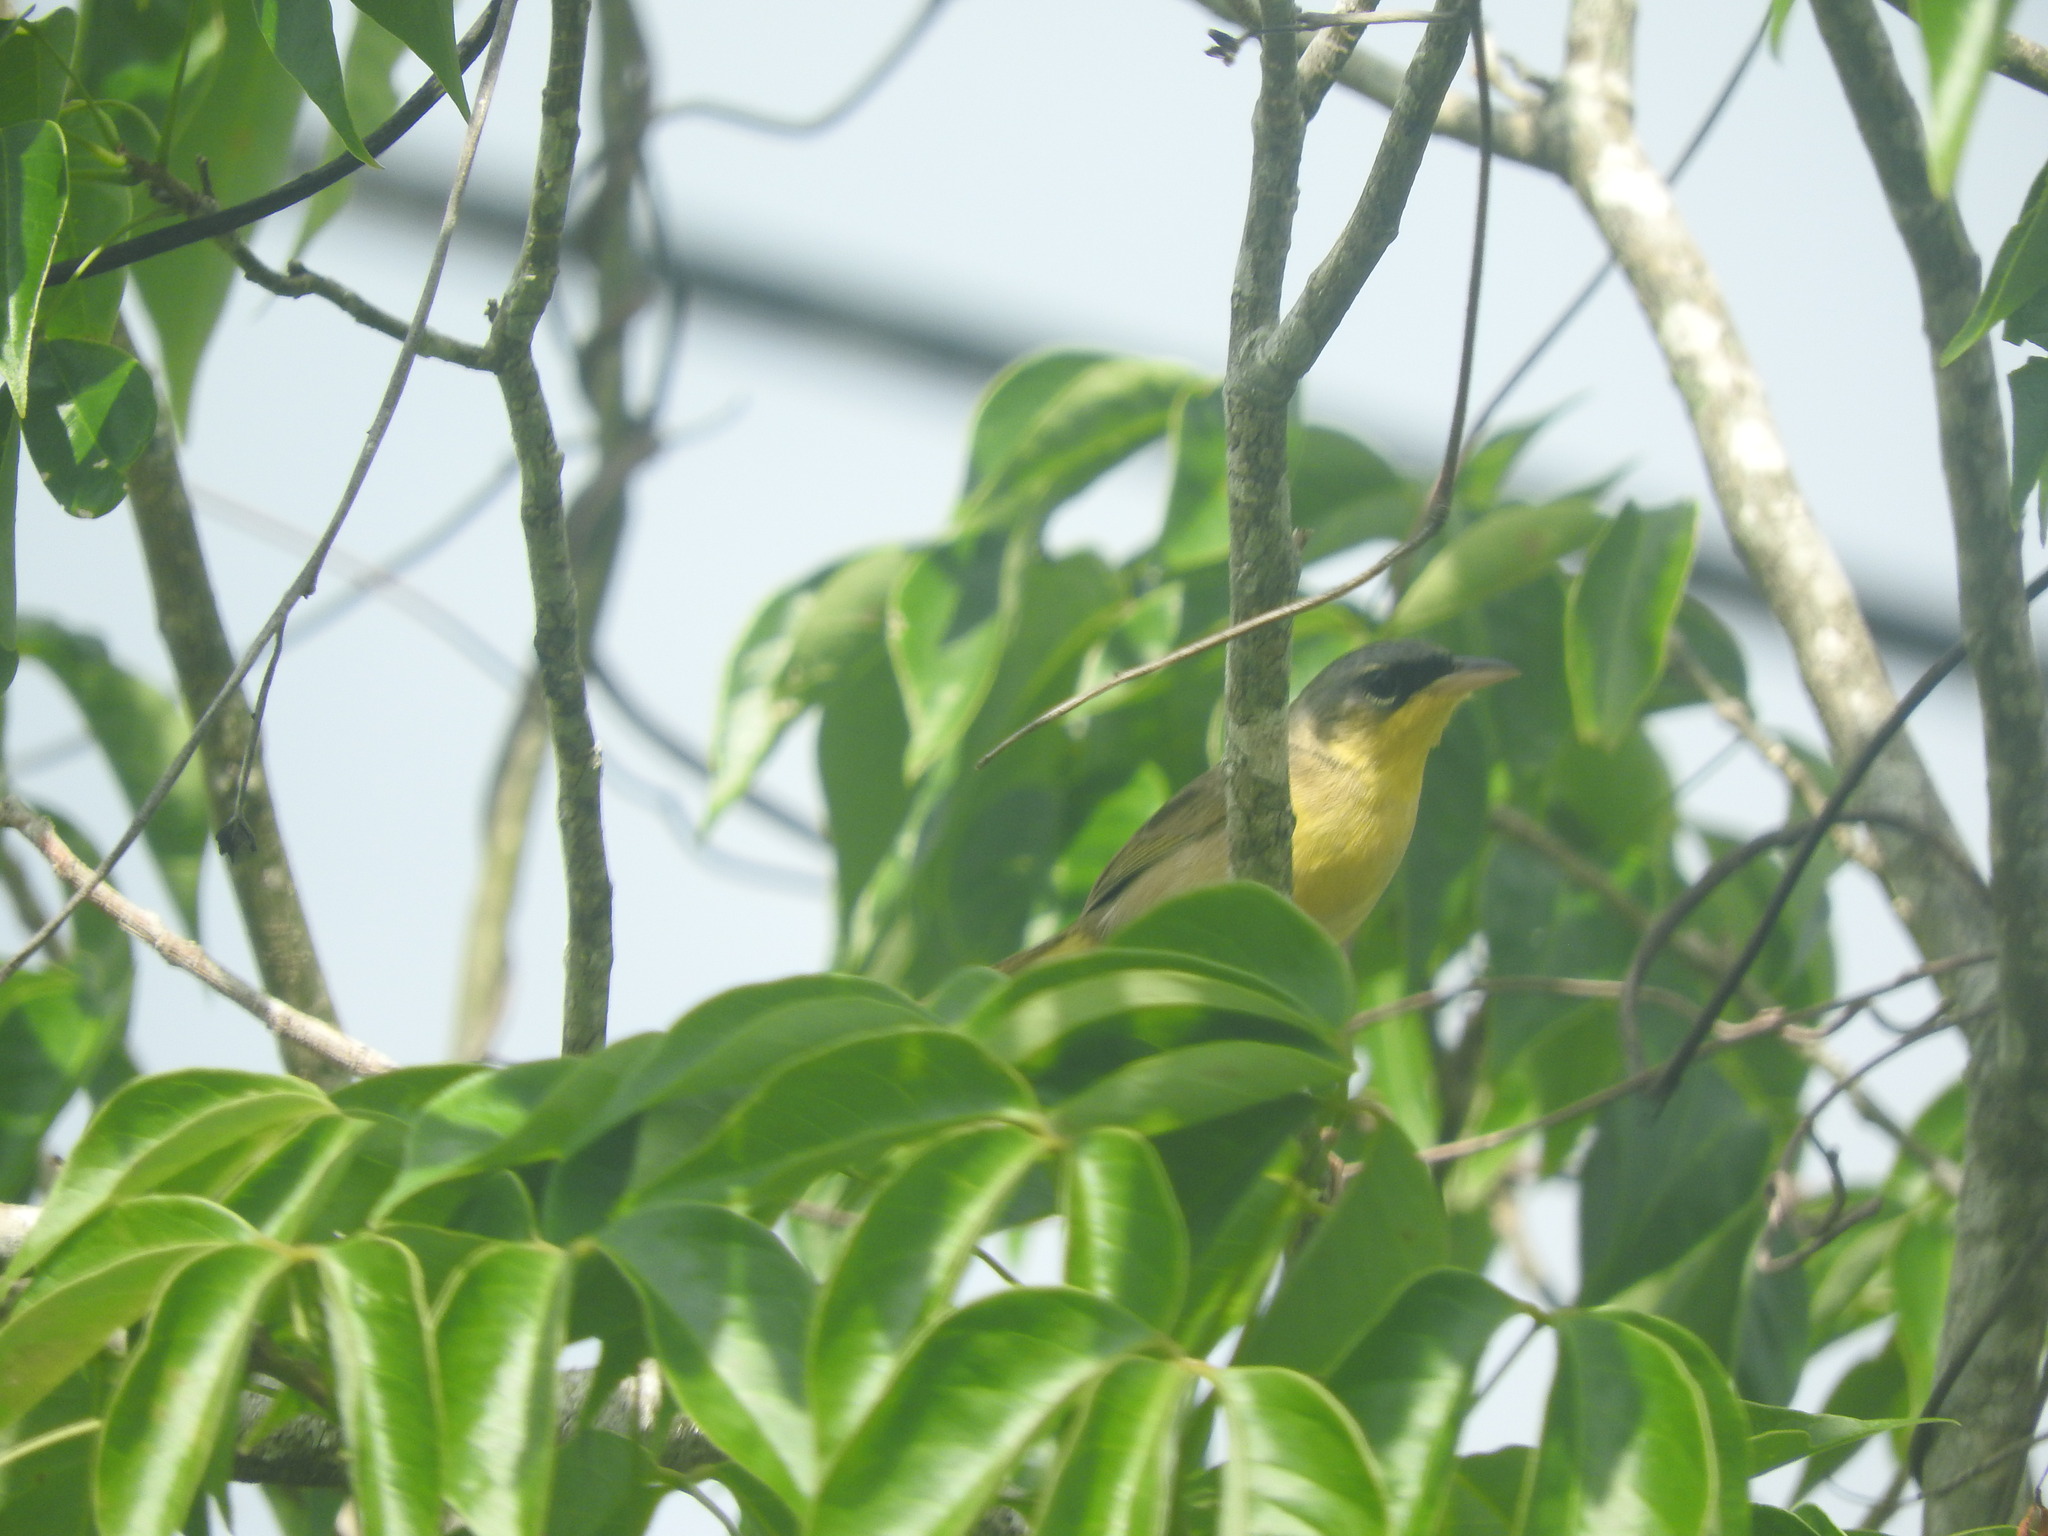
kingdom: Animalia
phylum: Chordata
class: Aves
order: Passeriformes
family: Parulidae
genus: Geothlypis
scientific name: Geothlypis poliocephala
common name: Gray-crowned yellowthroat
